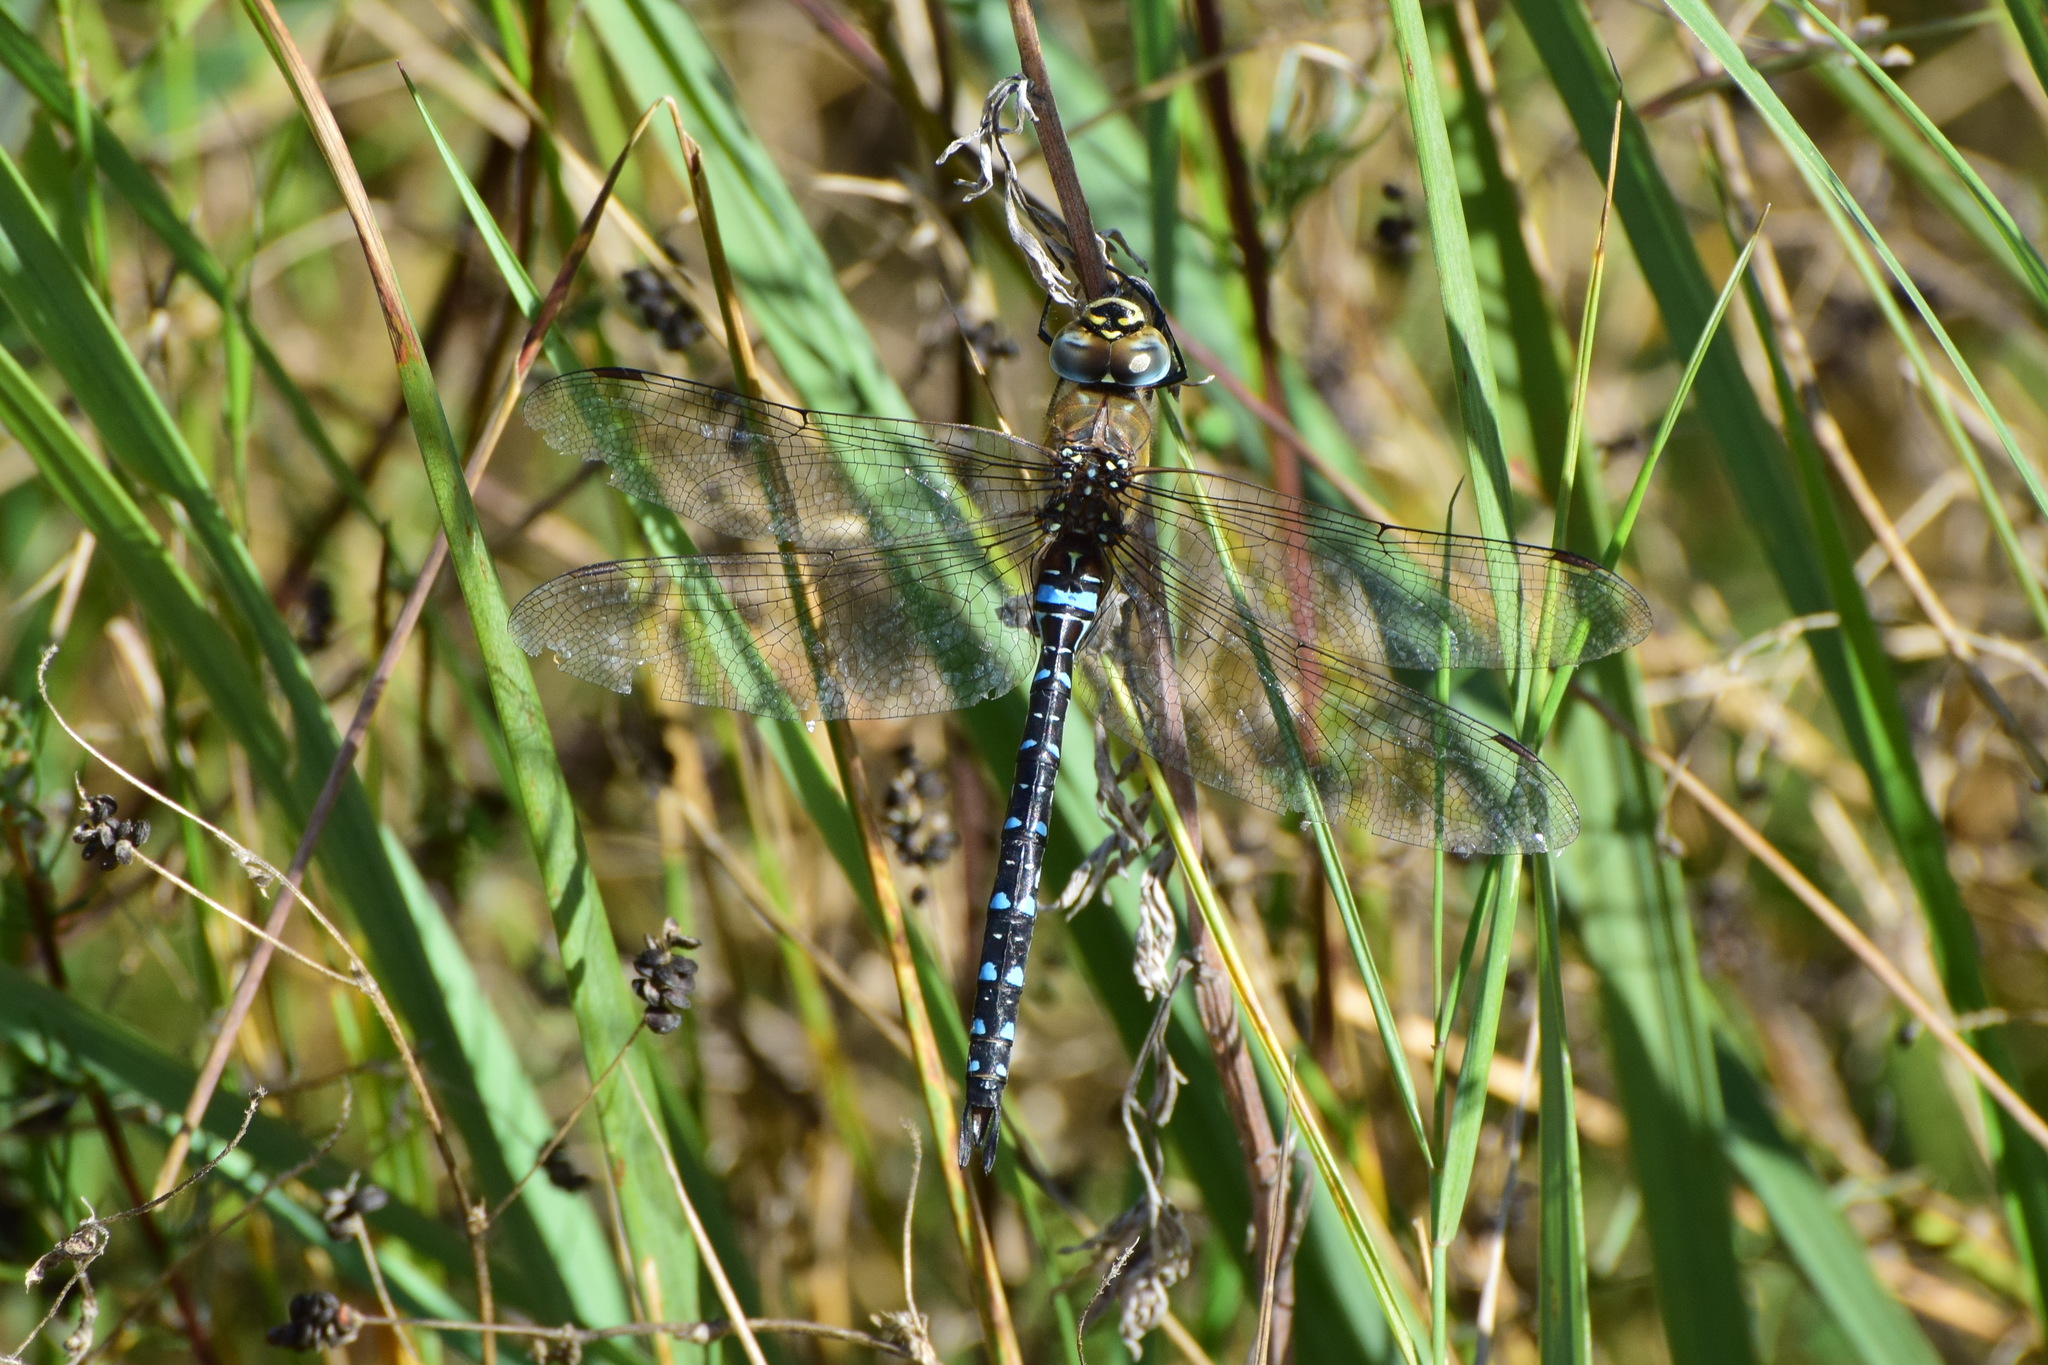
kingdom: Animalia
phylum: Arthropoda
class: Insecta
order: Odonata
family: Aeshnidae
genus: Aeshna
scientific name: Aeshna mixta
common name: Migrant hawker
